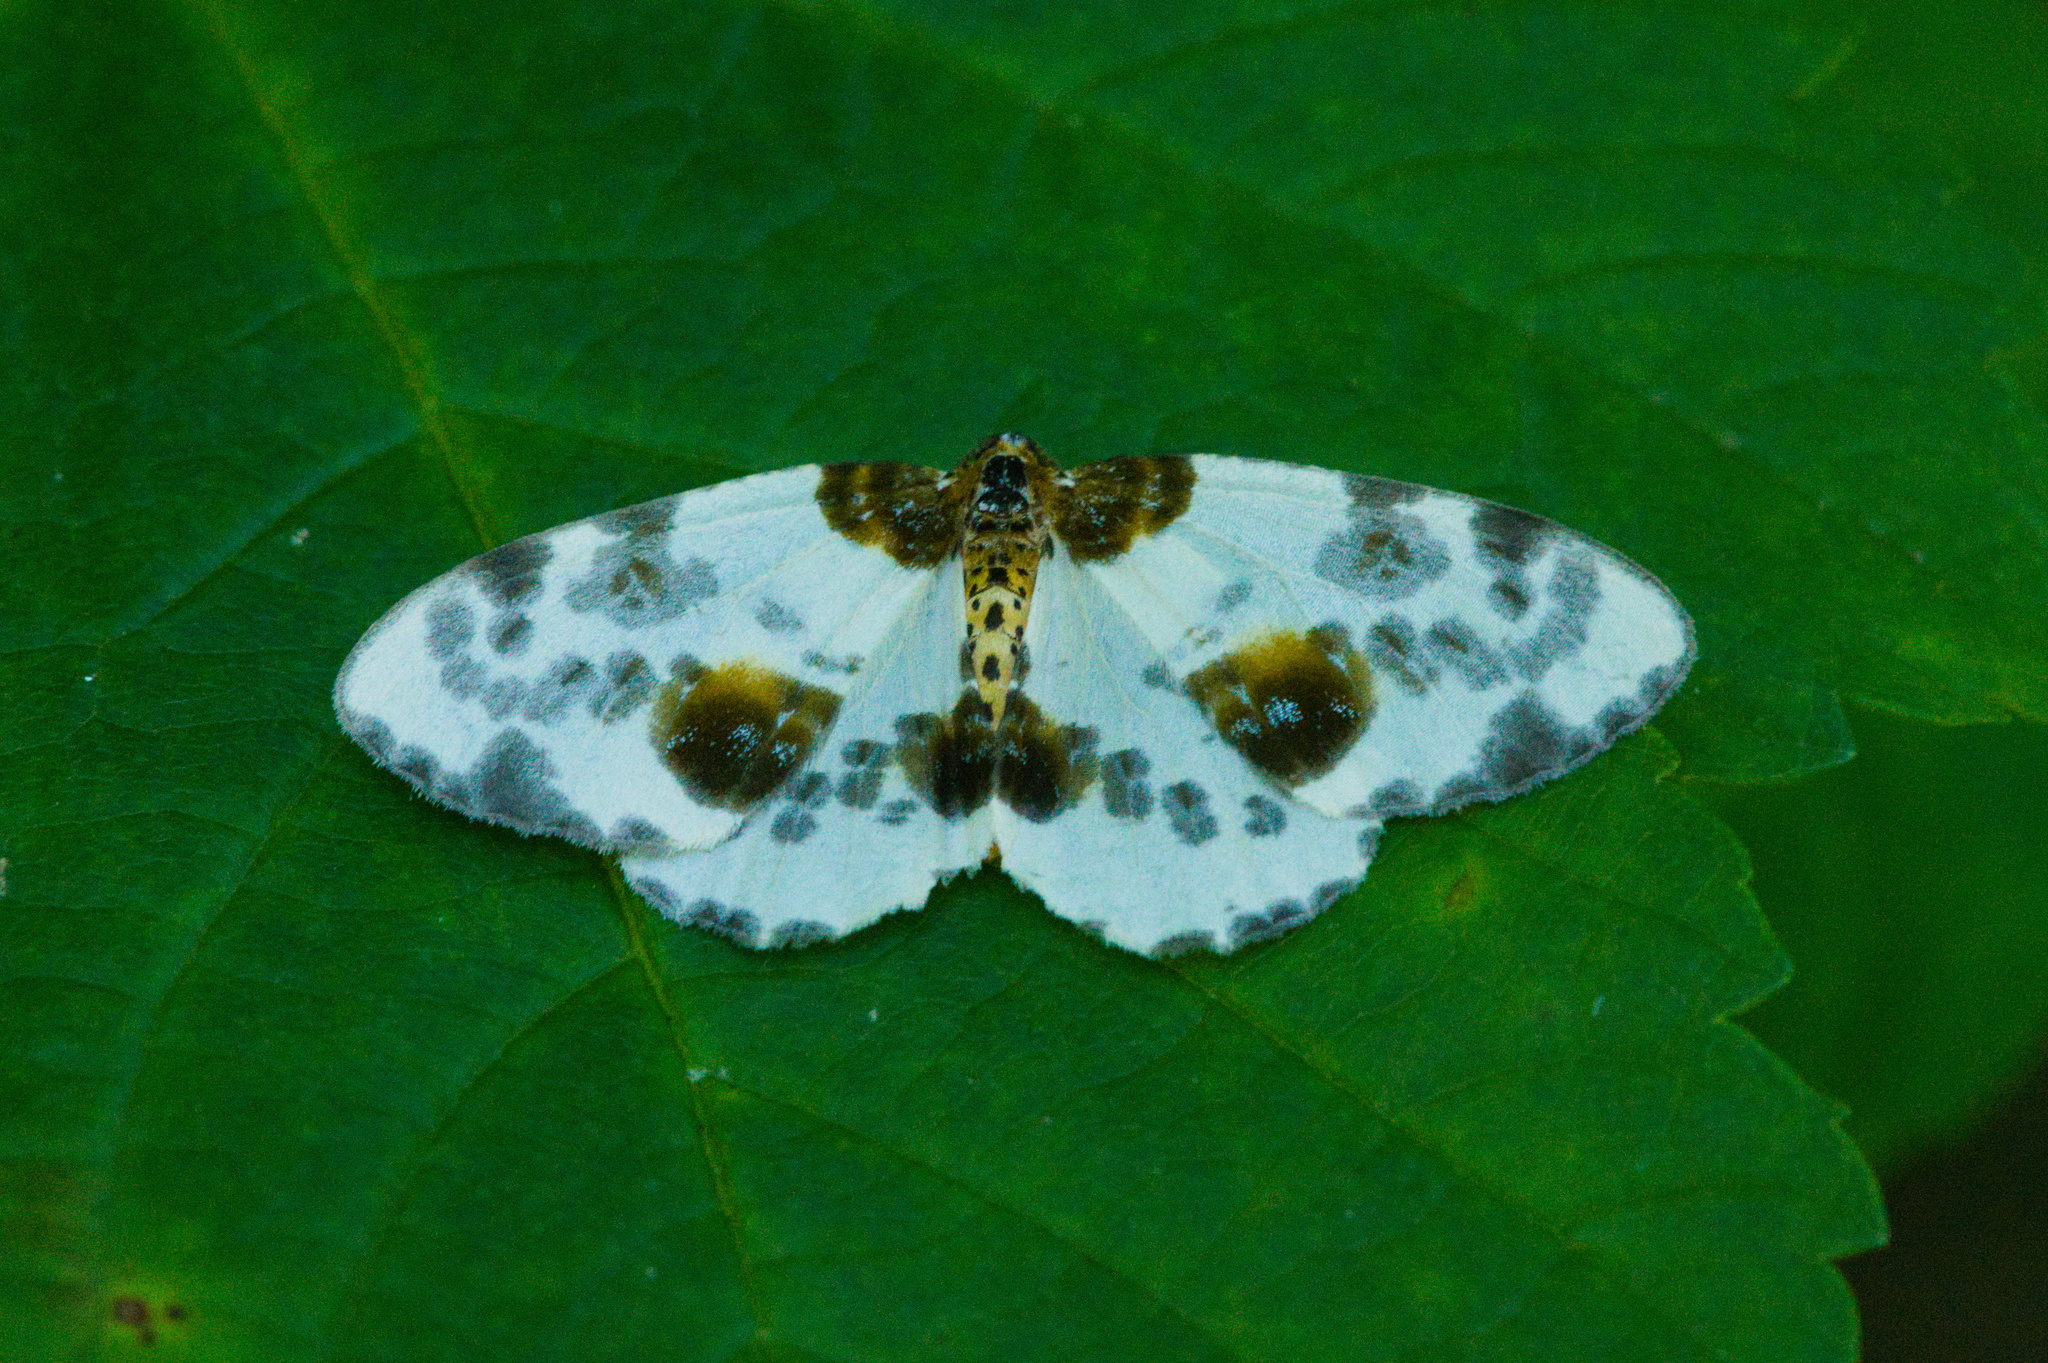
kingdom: Animalia
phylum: Arthropoda
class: Insecta
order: Lepidoptera
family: Geometridae
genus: Abraxas
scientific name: Abraxas sylvata
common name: Clouded magpie
